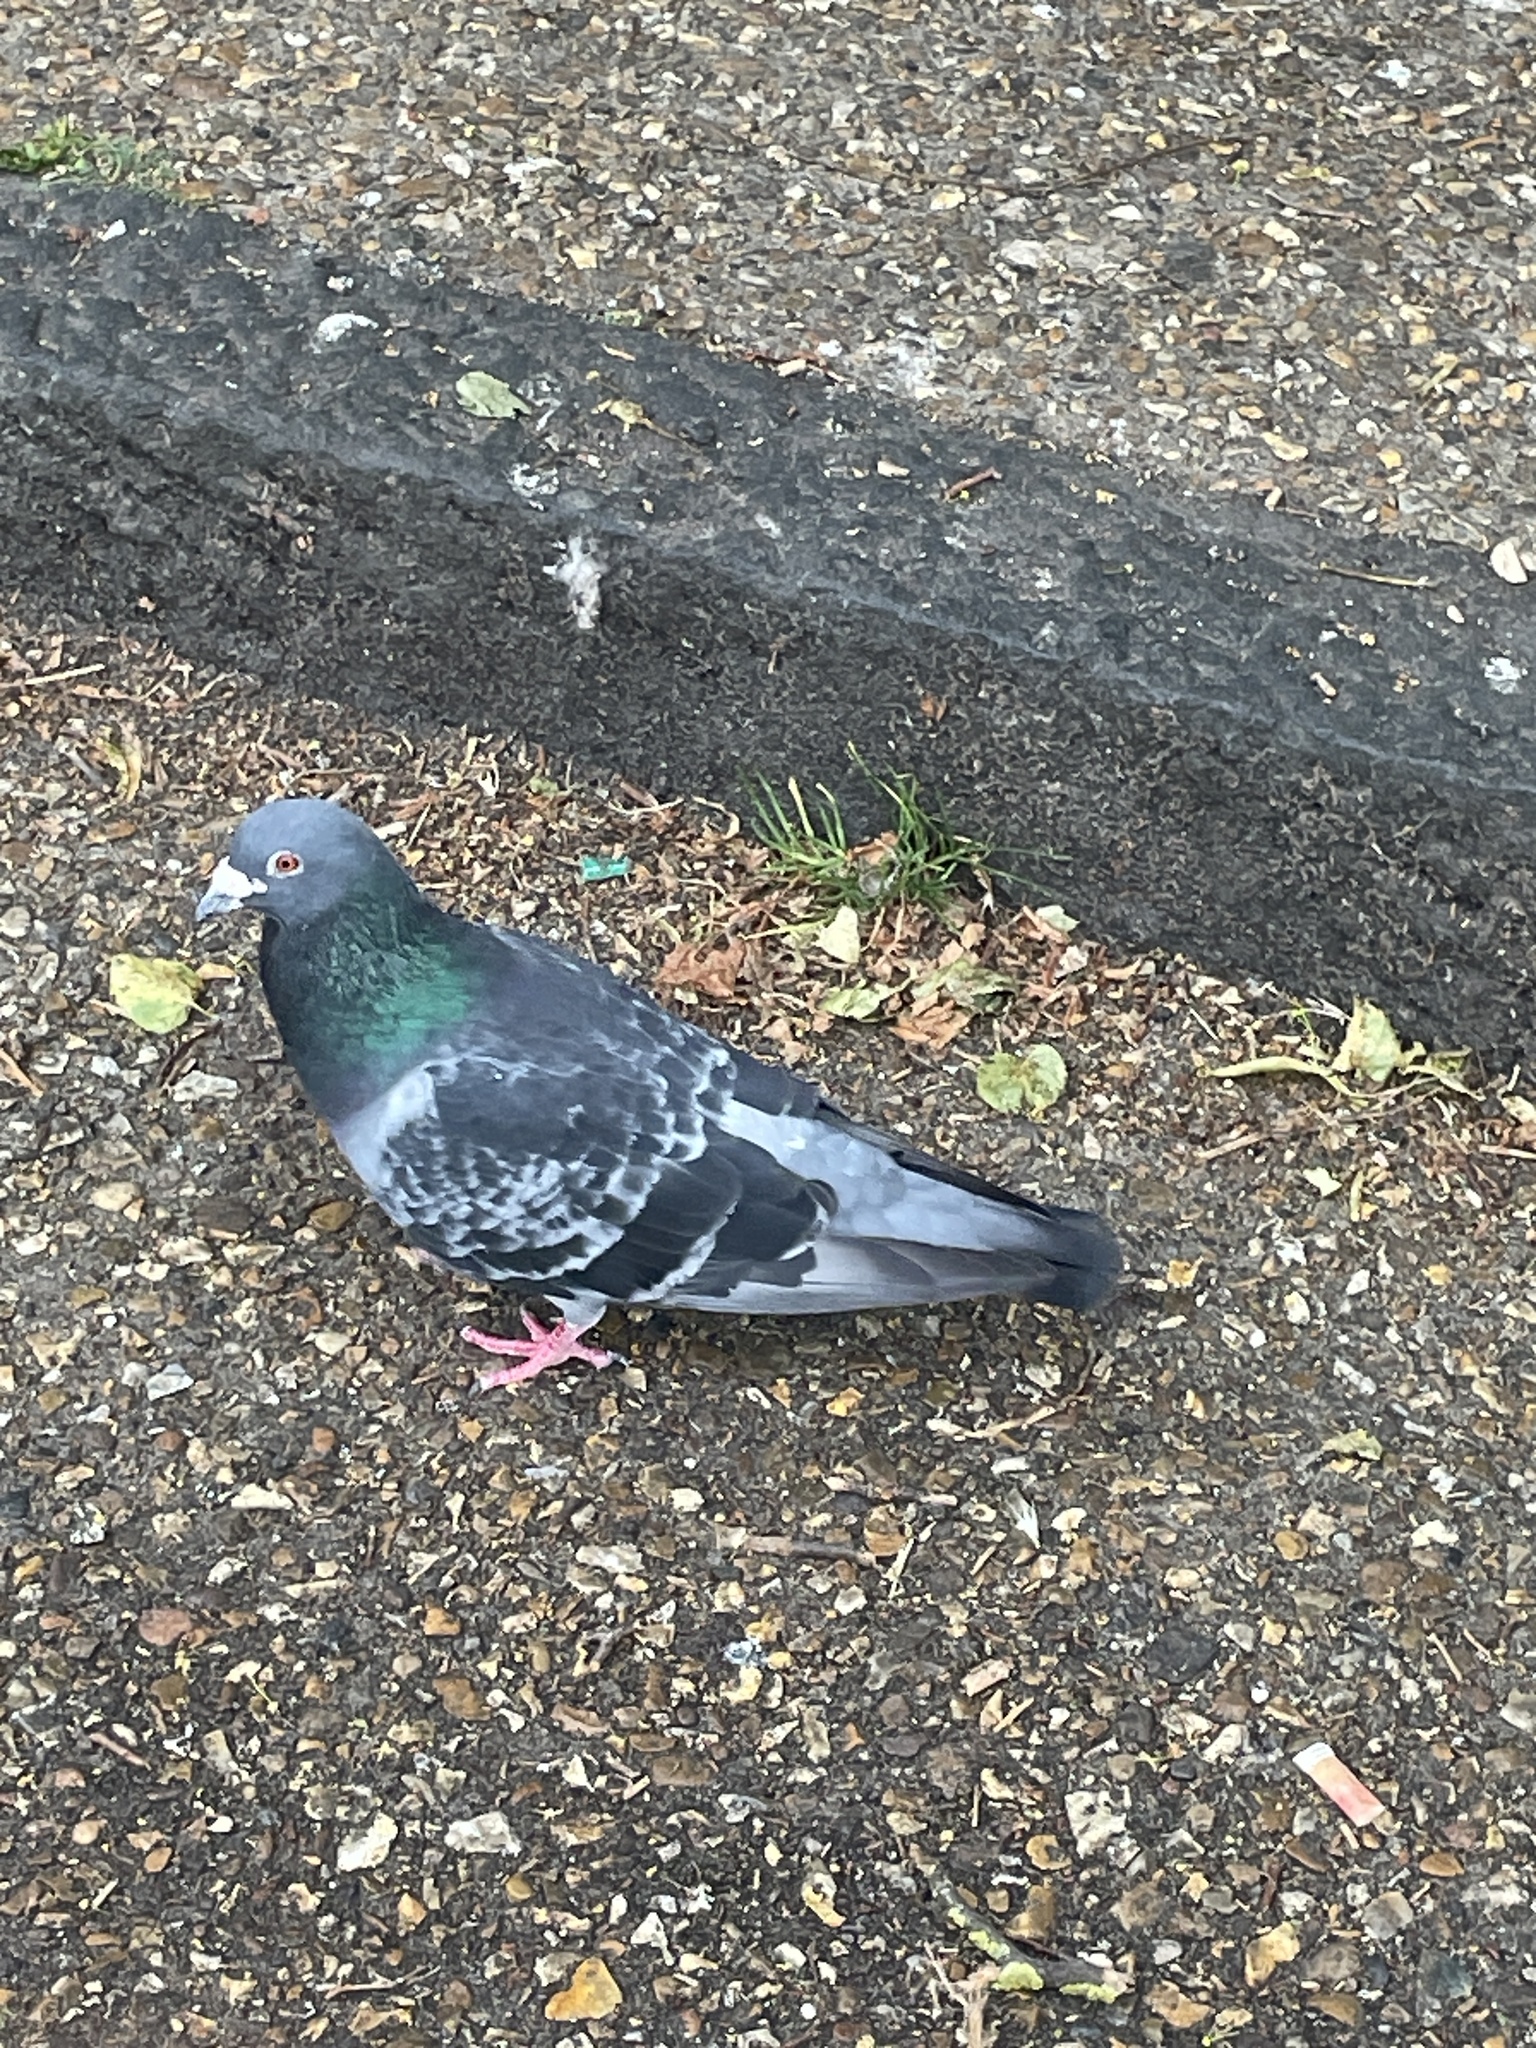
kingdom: Animalia
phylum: Chordata
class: Aves
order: Columbiformes
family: Columbidae
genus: Columba
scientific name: Columba livia
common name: Rock pigeon
